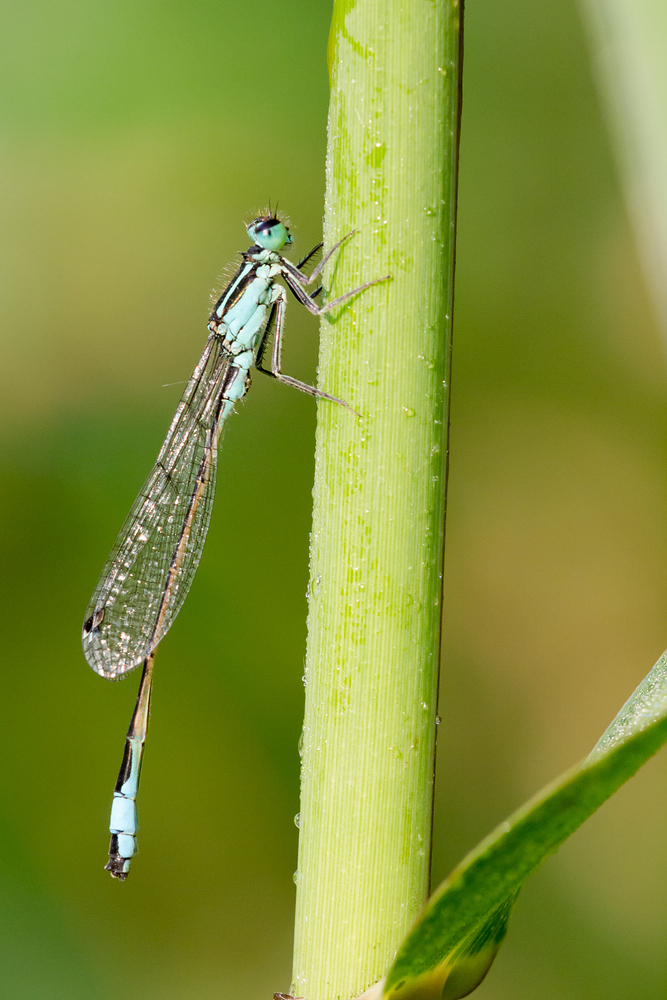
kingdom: Animalia
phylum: Arthropoda
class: Insecta
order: Odonata
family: Coenagrionidae
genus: Ischnura
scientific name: Ischnura elegans
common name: Blue-tailed damselfly
